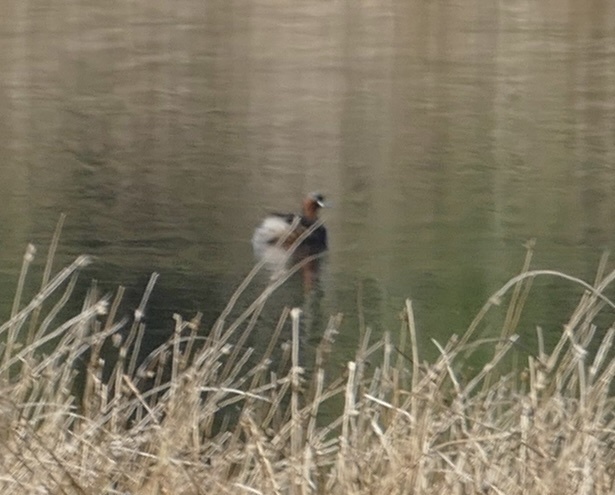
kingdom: Animalia
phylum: Chordata
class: Aves
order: Podicipediformes
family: Podicipedidae
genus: Tachybaptus
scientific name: Tachybaptus ruficollis
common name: Little grebe
